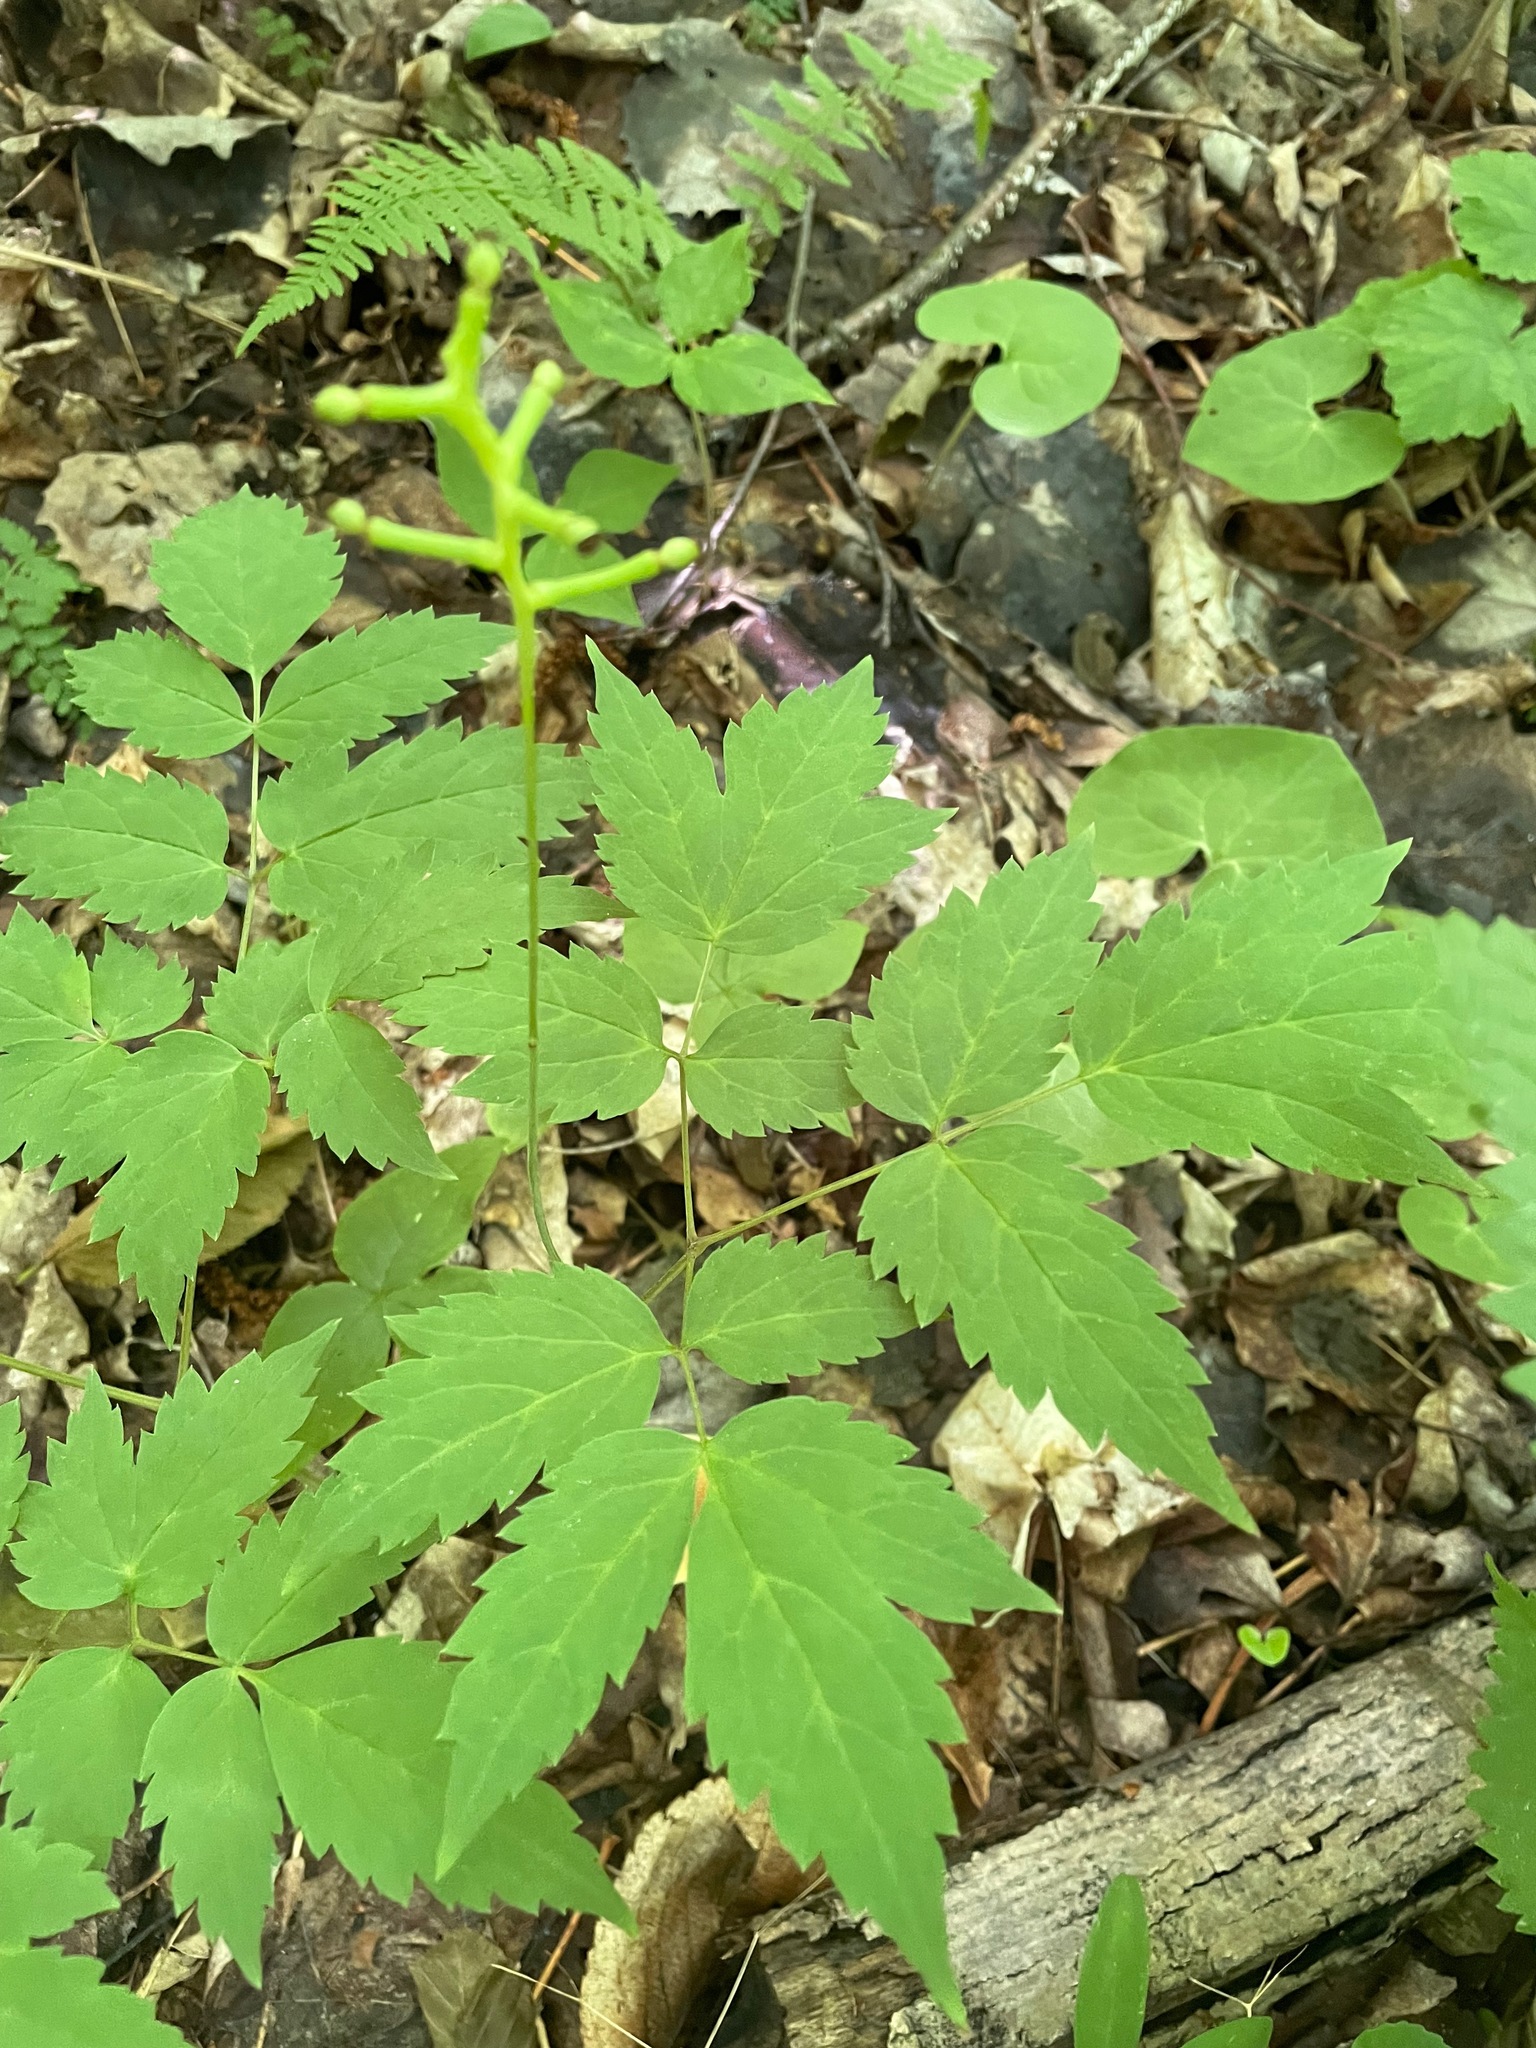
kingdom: Plantae
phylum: Tracheophyta
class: Magnoliopsida
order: Ranunculales
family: Ranunculaceae
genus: Actaea
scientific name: Actaea pachypoda
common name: Doll's-eyes
